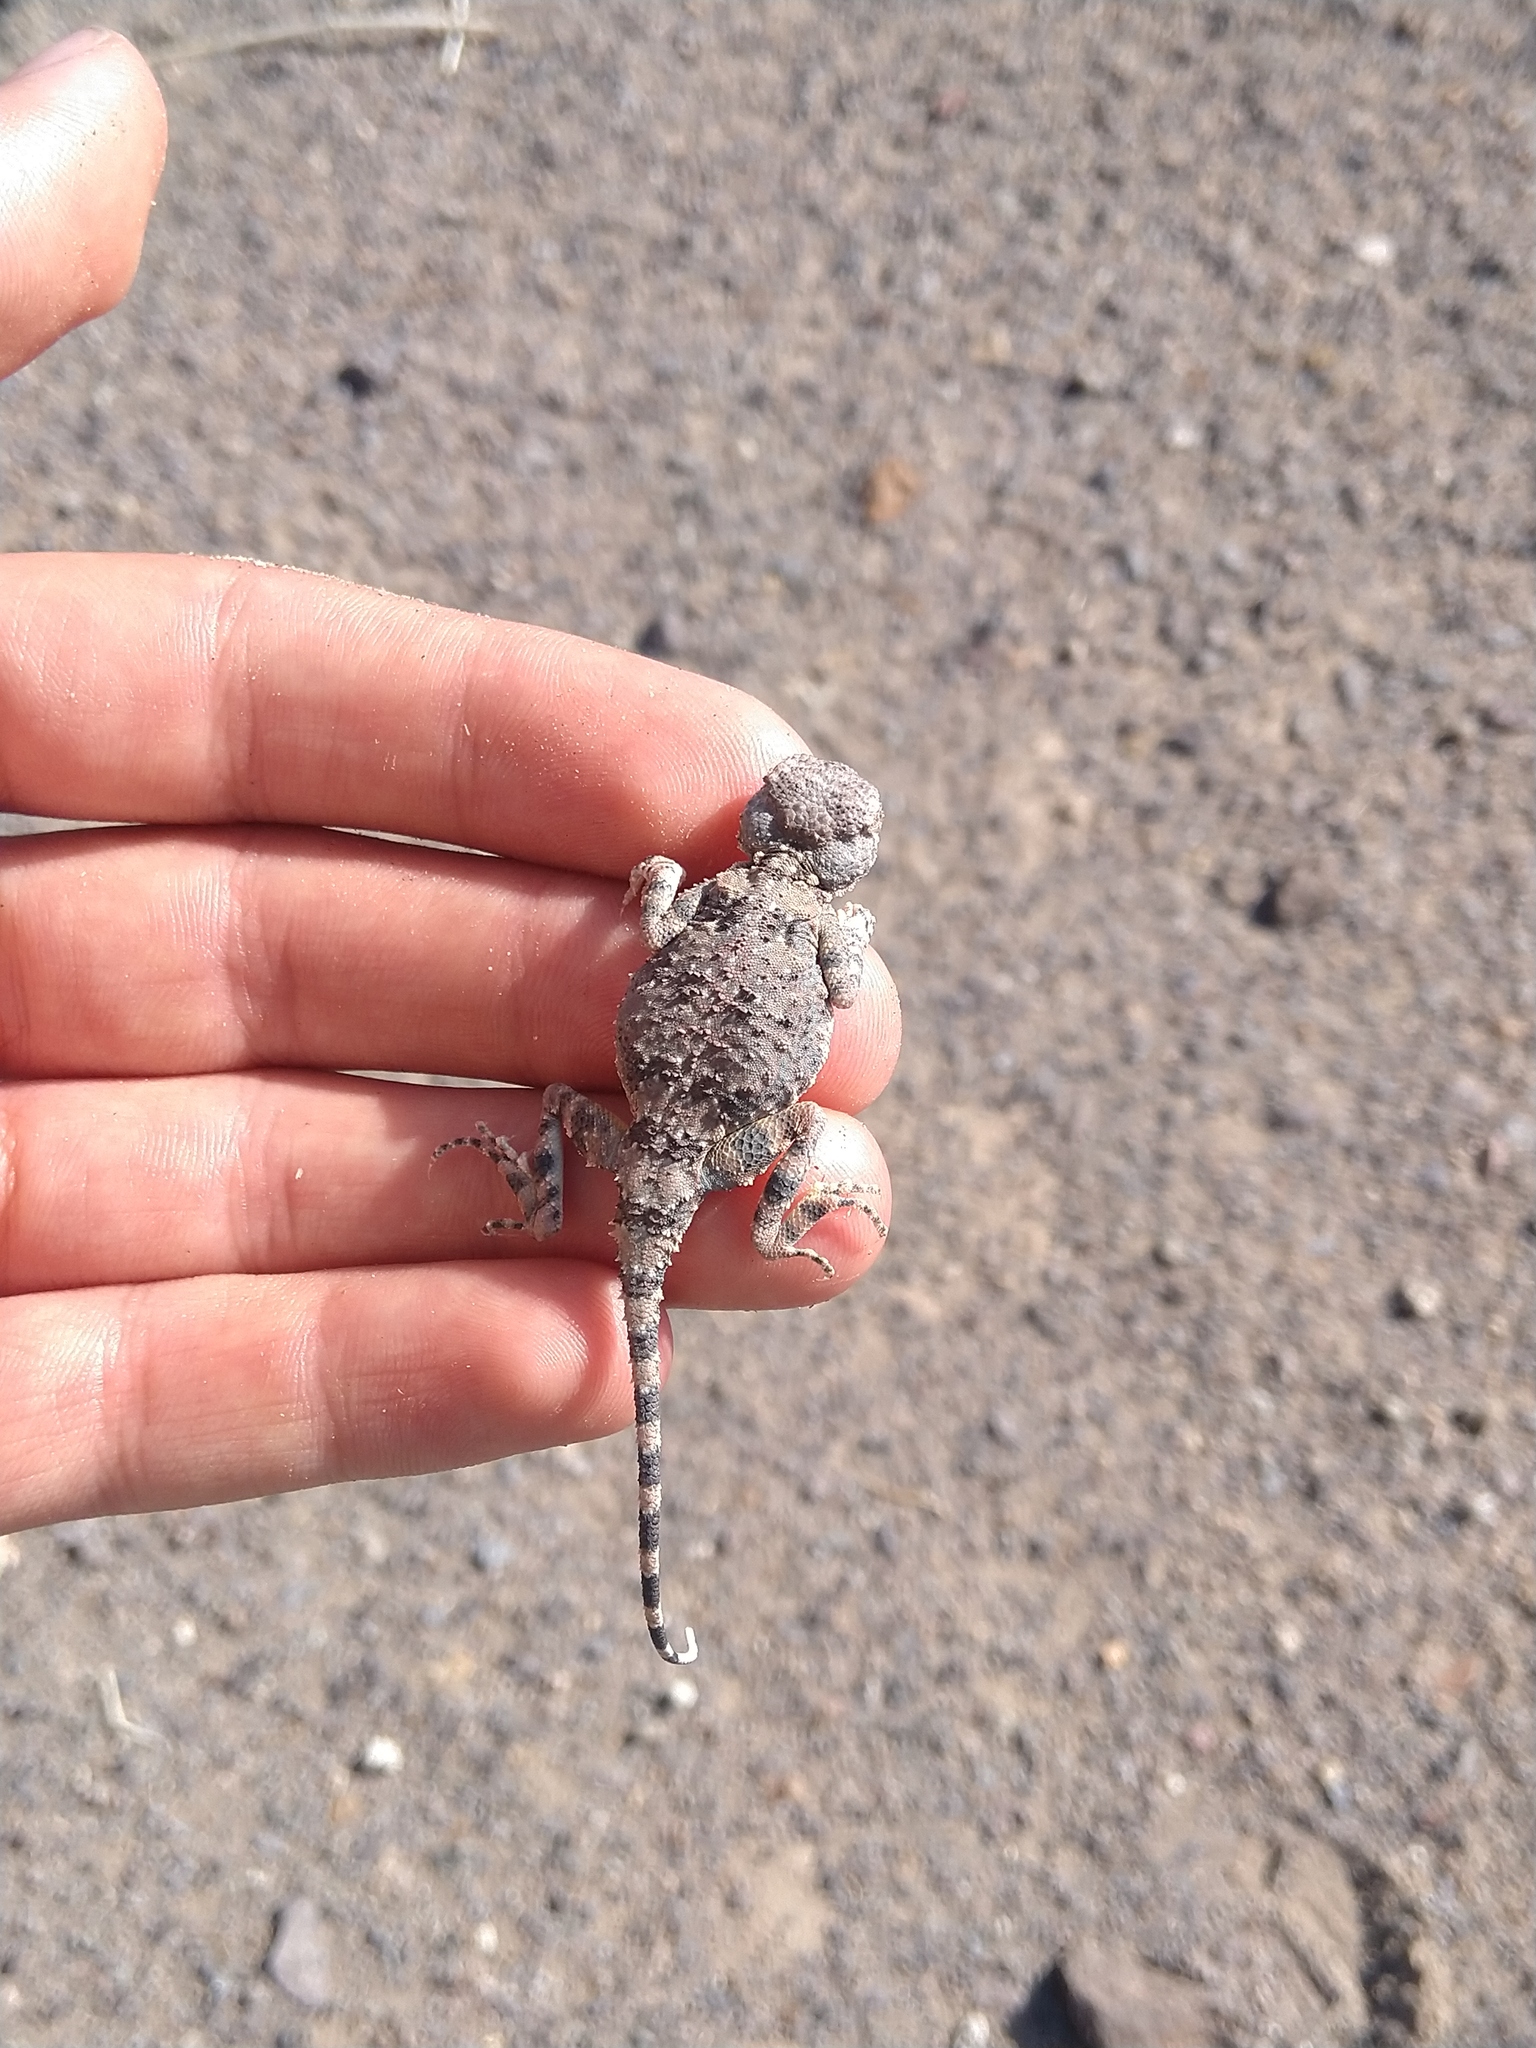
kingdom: Animalia
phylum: Chordata
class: Squamata
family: Agamidae
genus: Phrynocephalus
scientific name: Phrynocephalus scutellatus
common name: Gray toad head agama
